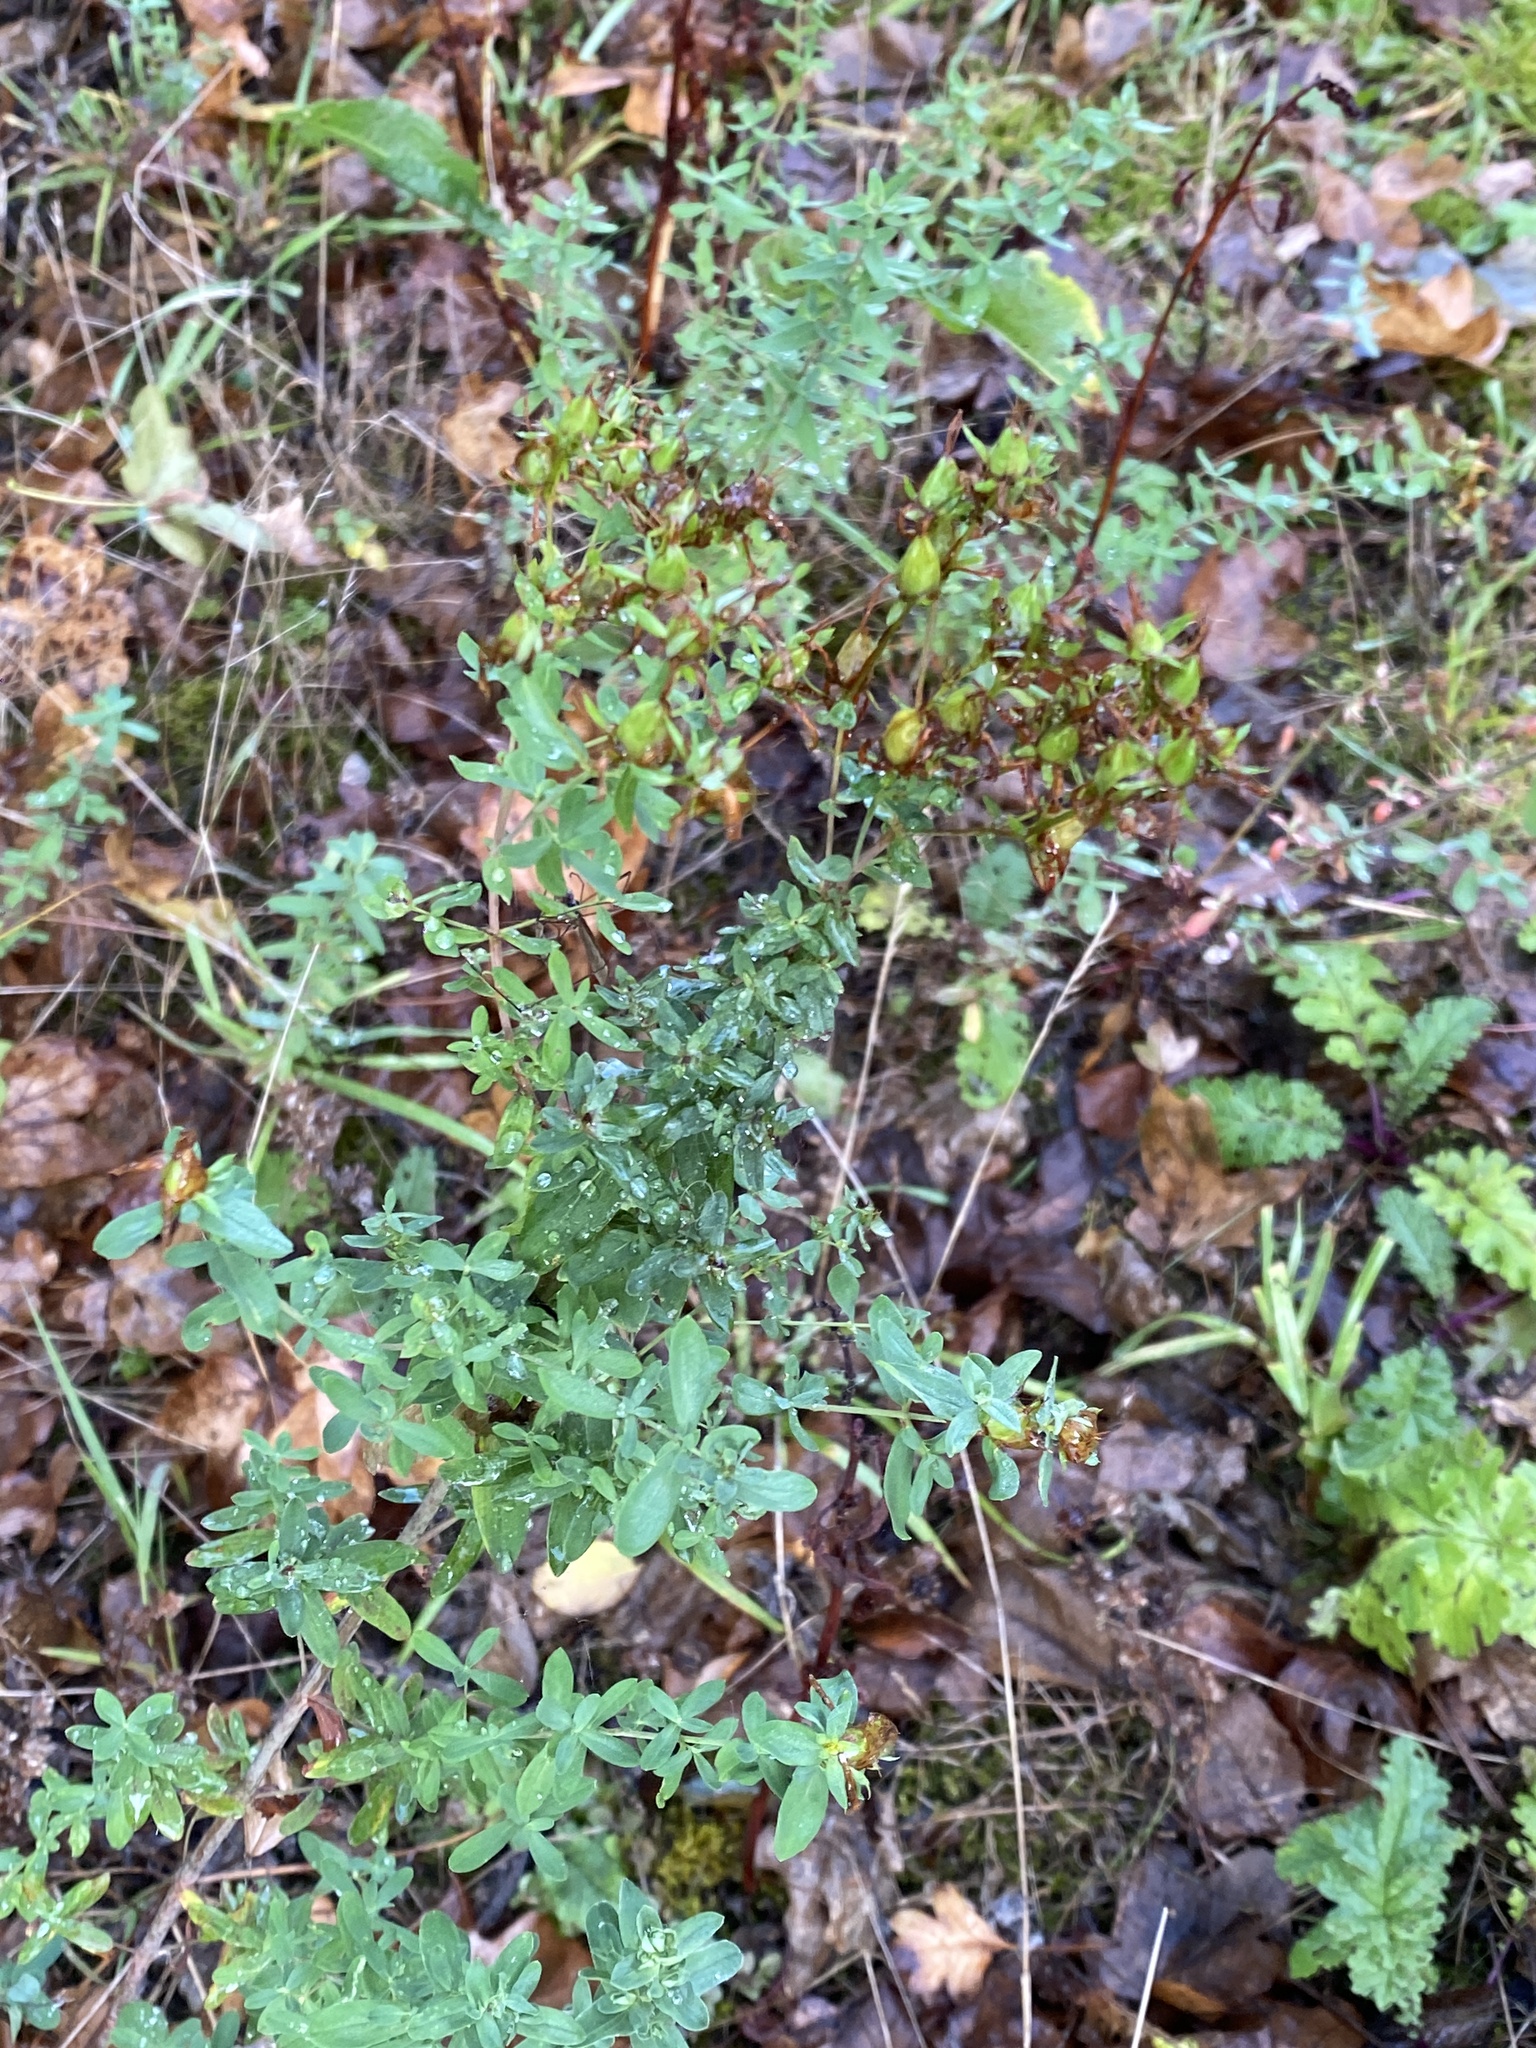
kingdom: Plantae
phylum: Tracheophyta
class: Magnoliopsida
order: Malpighiales
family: Hypericaceae
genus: Hypericum
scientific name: Hypericum perforatum
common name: Common st. johnswort
